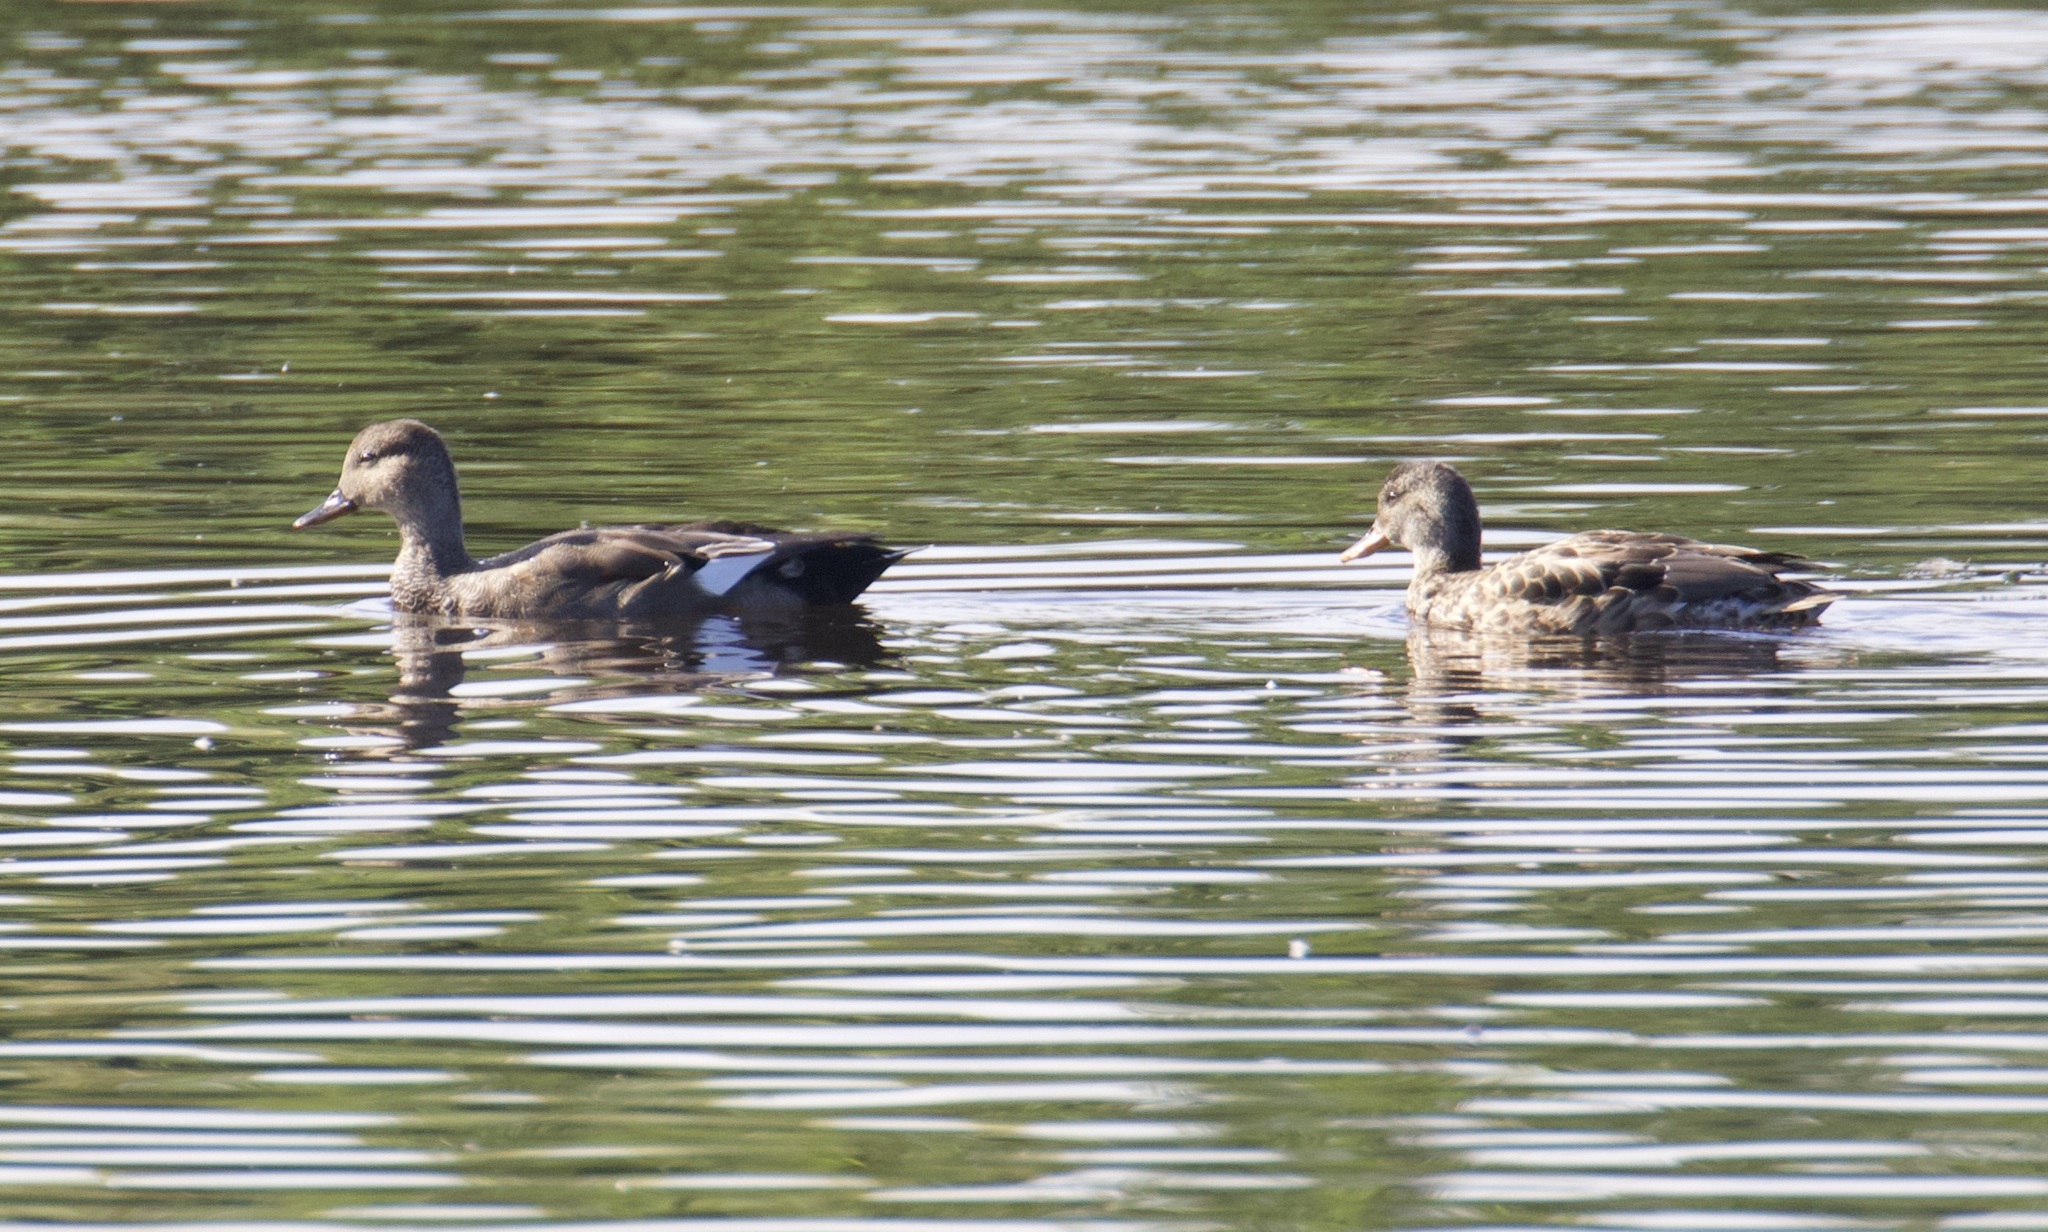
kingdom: Animalia
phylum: Chordata
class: Aves
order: Anseriformes
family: Anatidae
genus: Mareca
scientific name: Mareca strepera
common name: Gadwall
